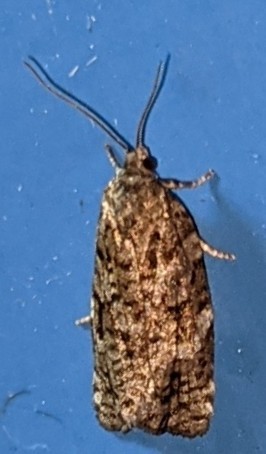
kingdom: Animalia
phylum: Arthropoda
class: Insecta
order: Lepidoptera
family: Tortricidae
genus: Choristoneura
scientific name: Choristoneura fumiferana
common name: Spruce budworm
